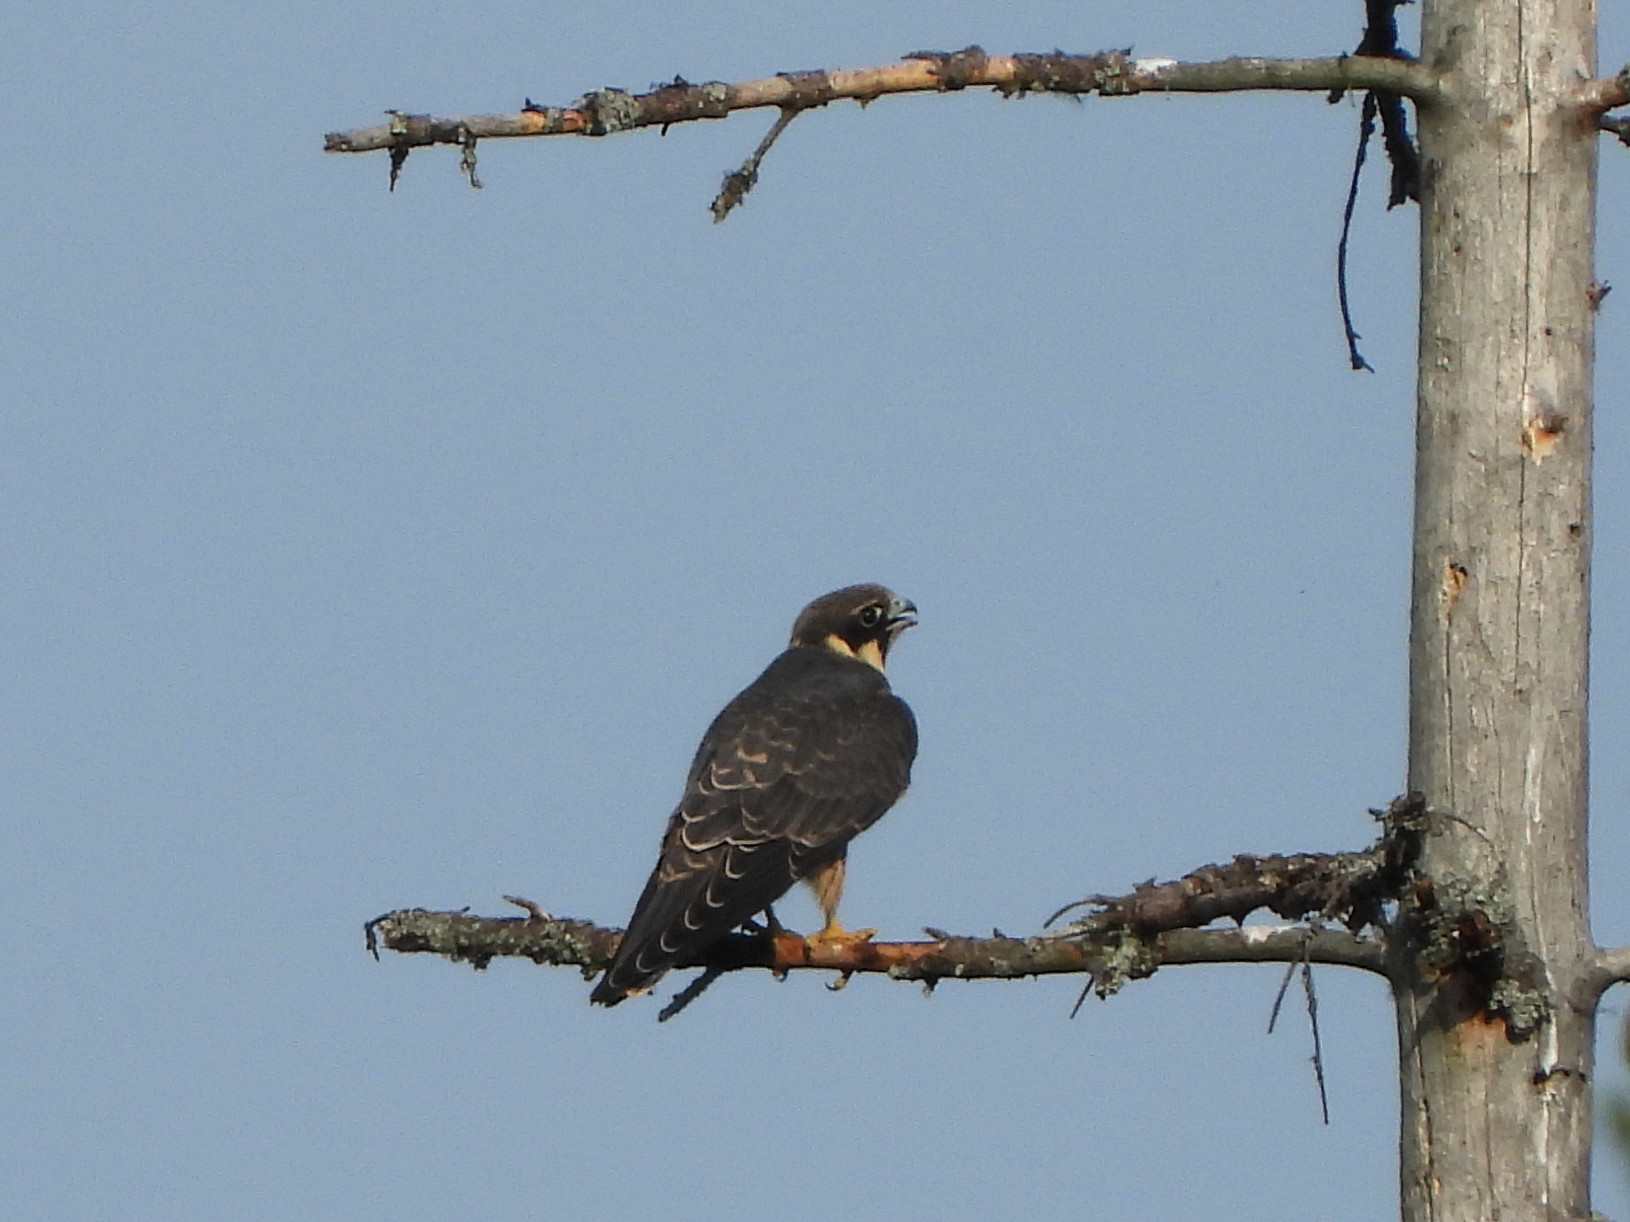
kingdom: Animalia
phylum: Chordata
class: Aves
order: Falconiformes
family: Falconidae
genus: Falco
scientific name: Falco subbuteo
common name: Eurasian hobby
